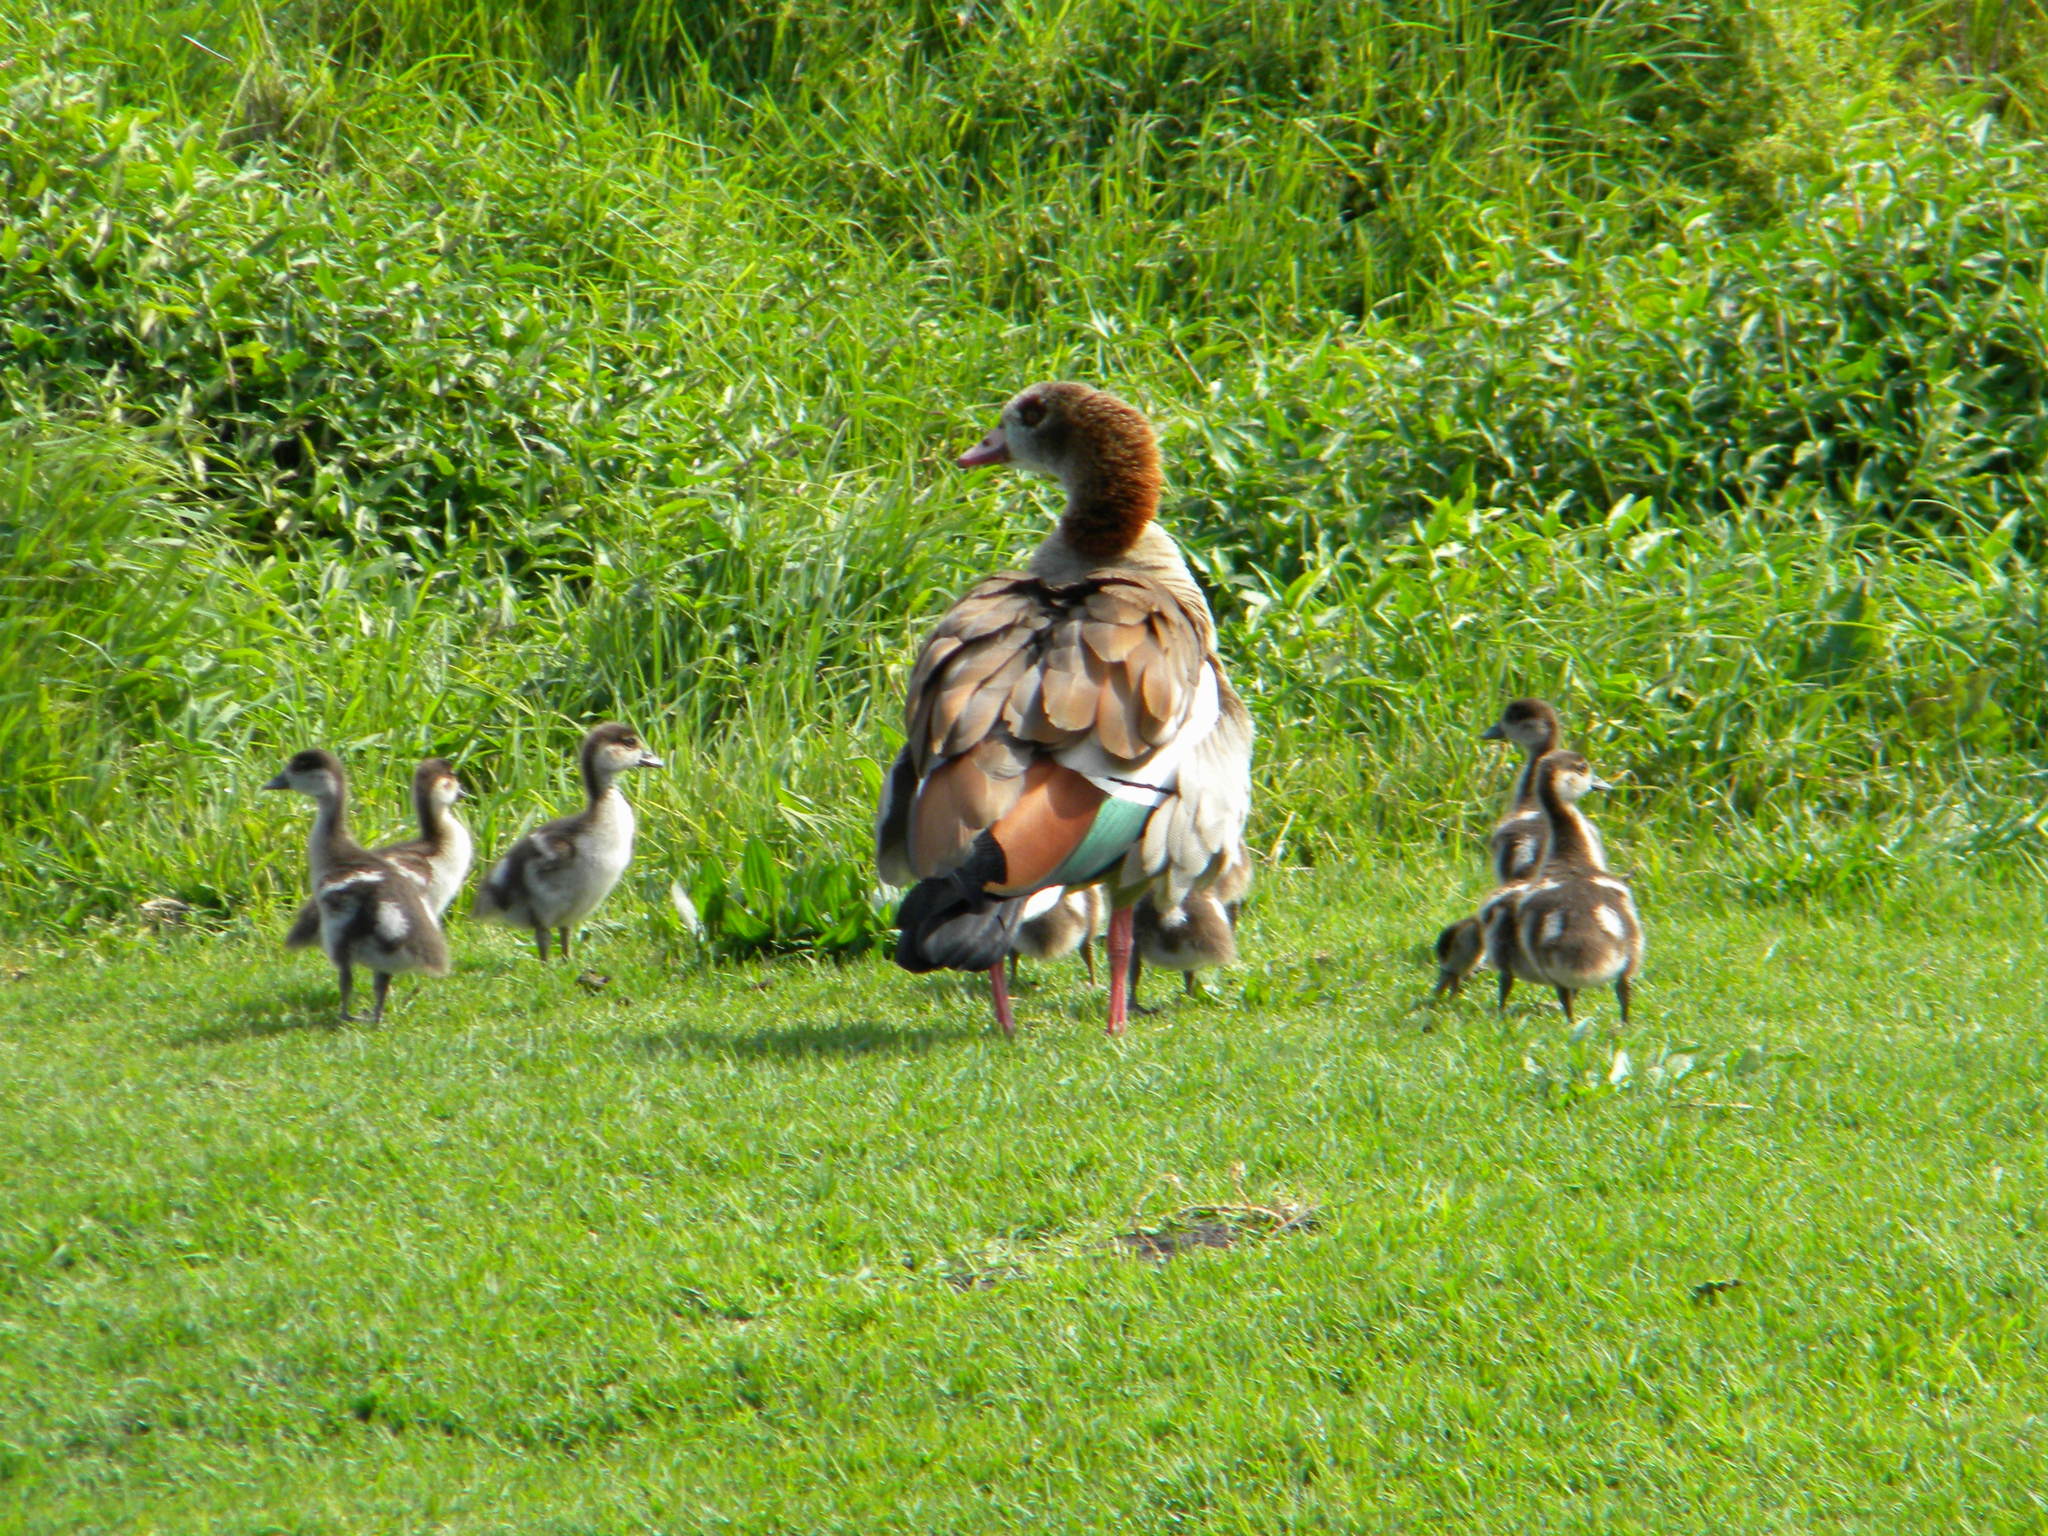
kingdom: Animalia
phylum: Chordata
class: Aves
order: Anseriformes
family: Anatidae
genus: Alopochen
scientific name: Alopochen aegyptiaca
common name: Egyptian goose
